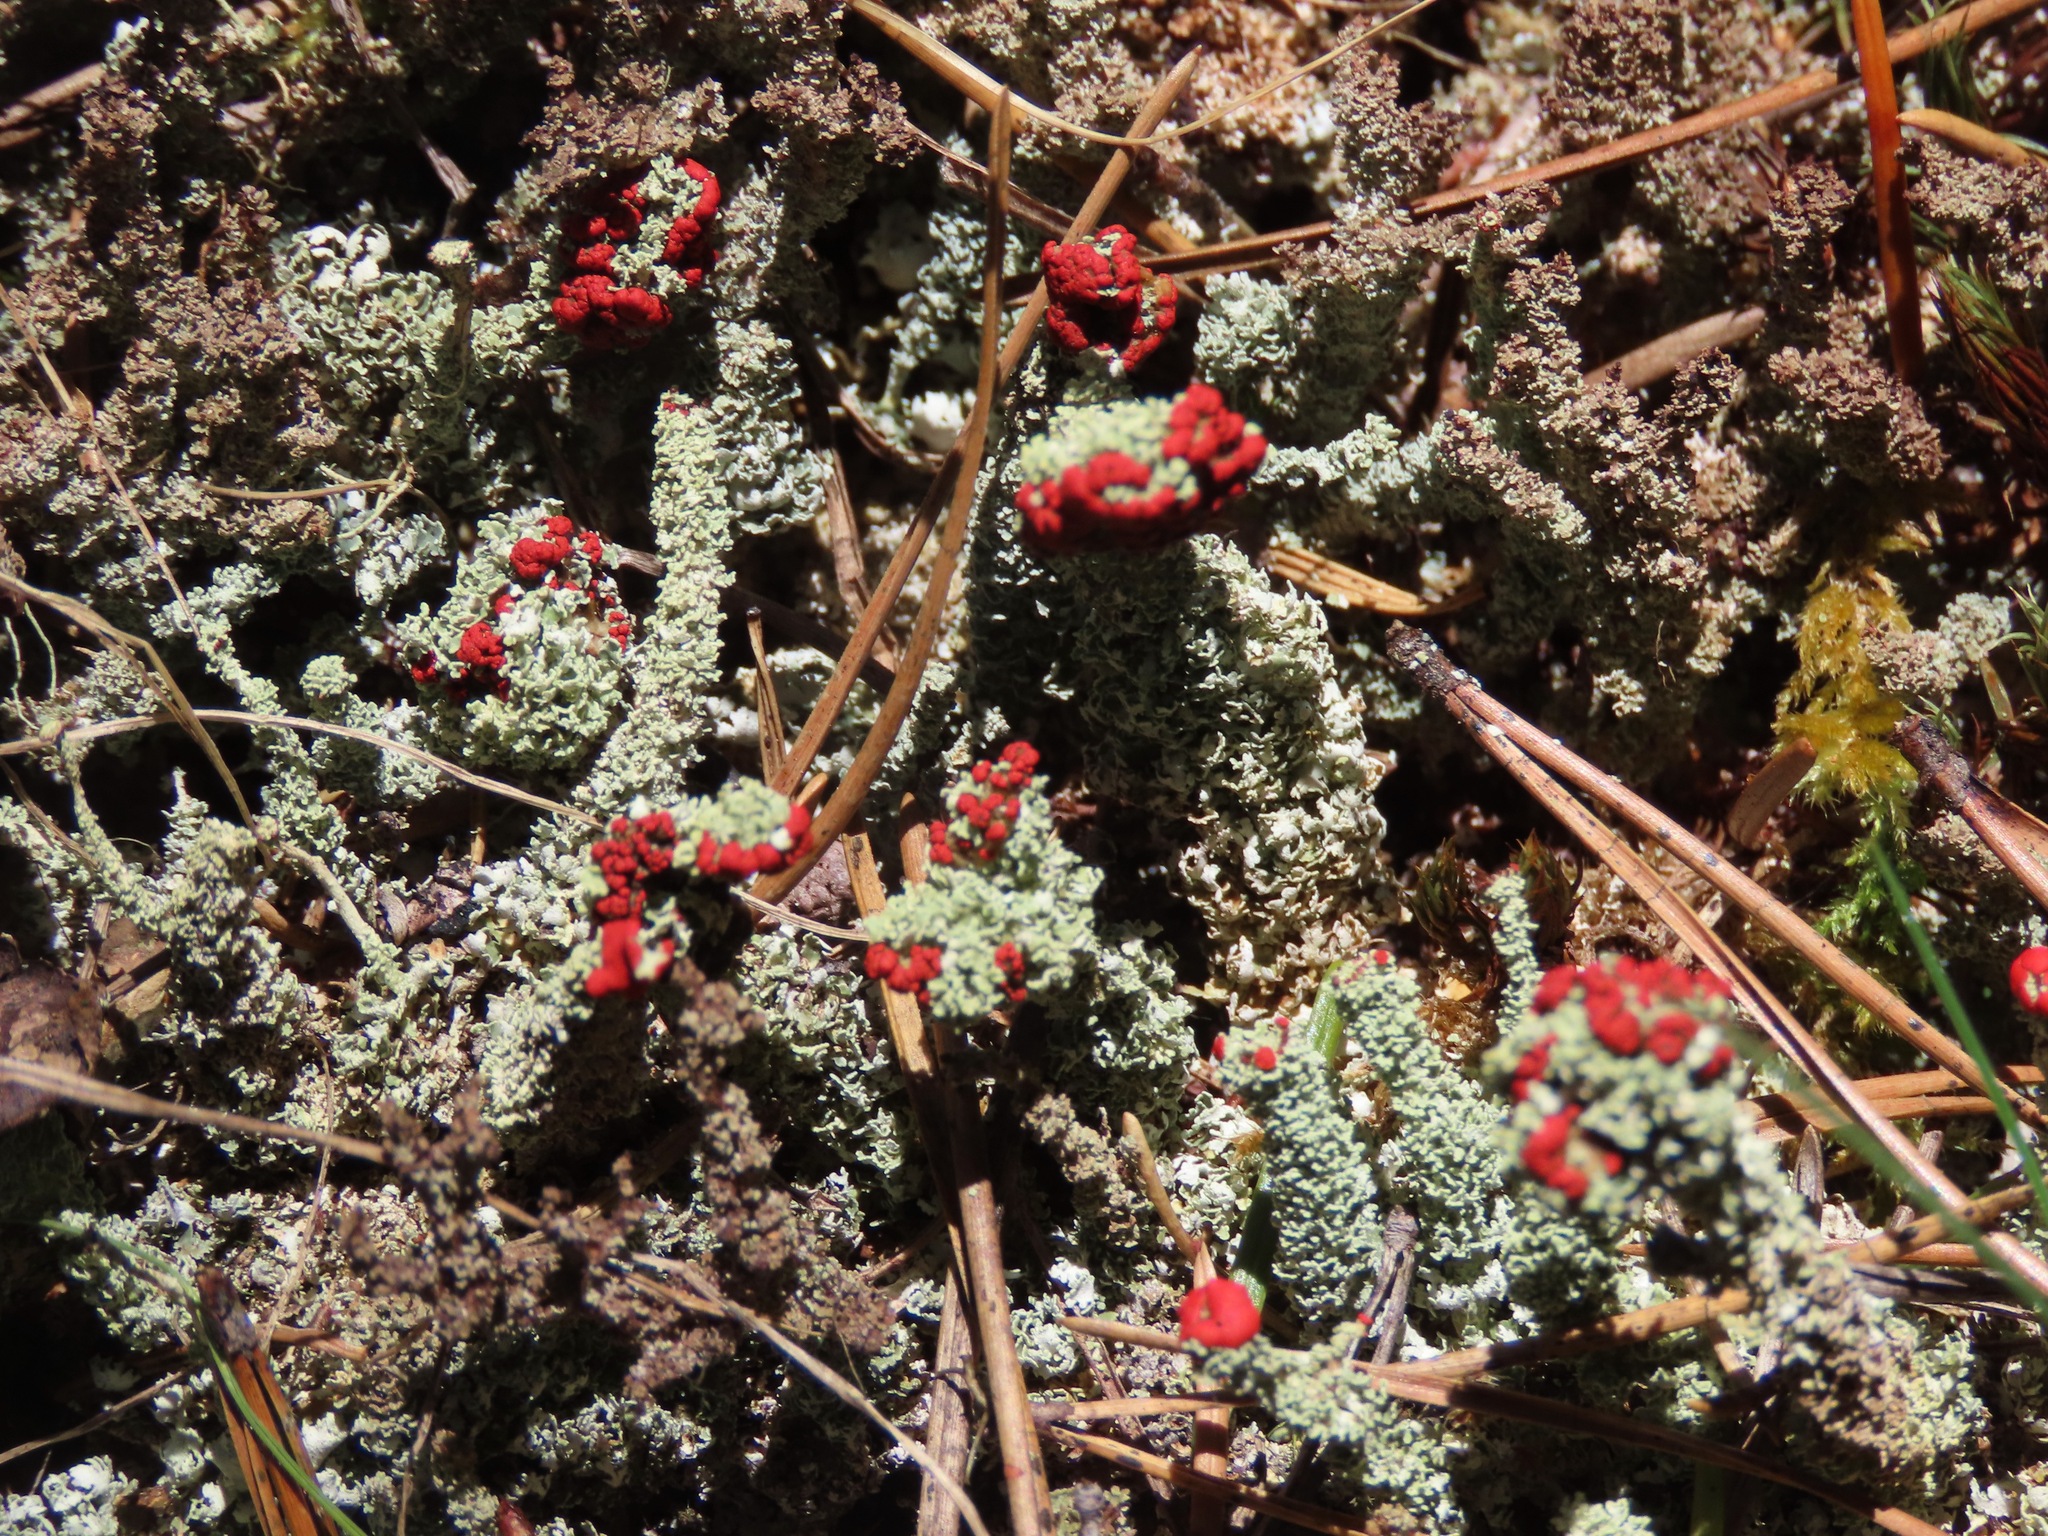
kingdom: Fungi
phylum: Ascomycota
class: Lecanoromycetes
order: Lecanorales
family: Cladoniaceae
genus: Cladonia
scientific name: Cladonia bellidiflora
